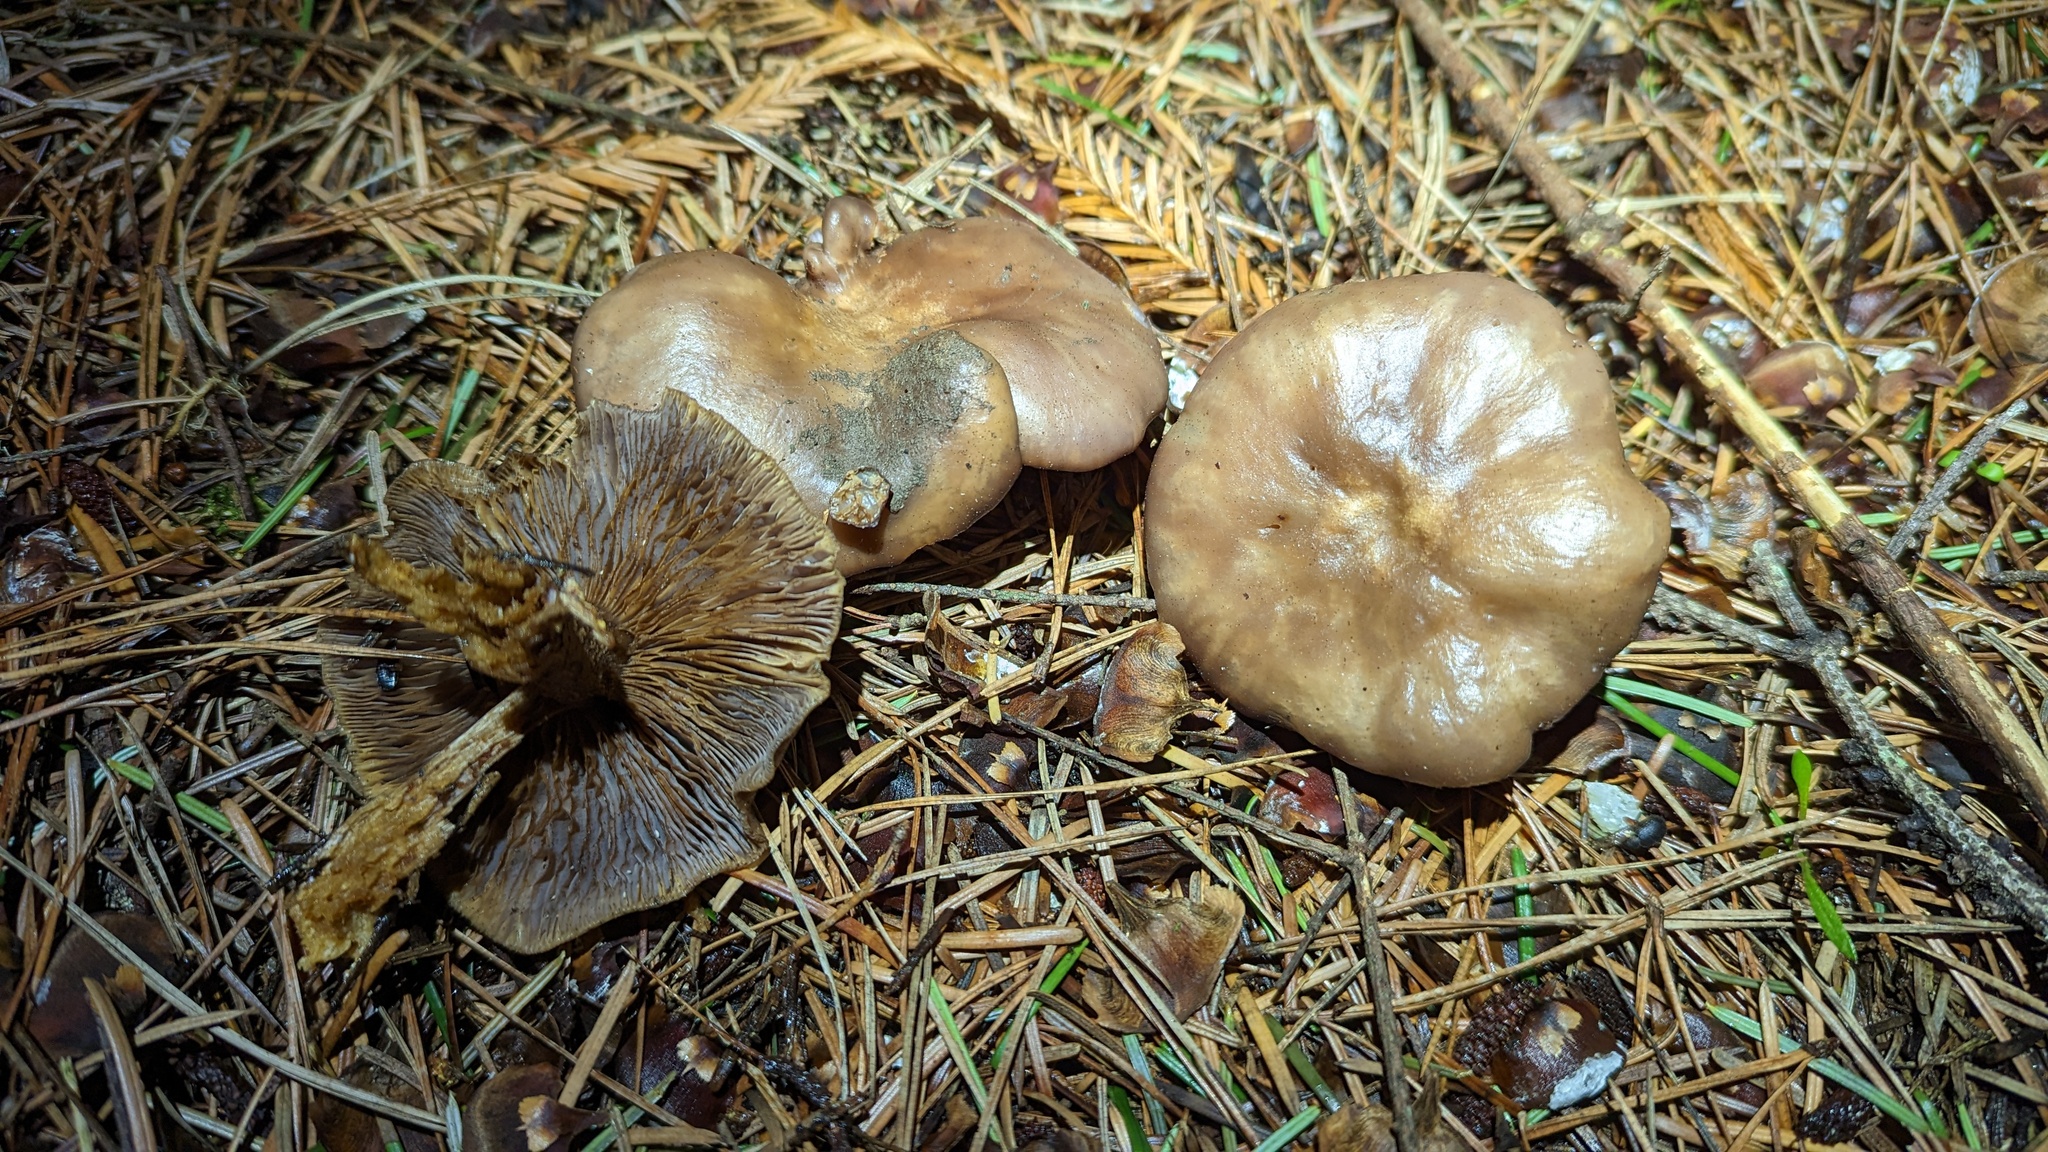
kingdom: Fungi
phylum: Basidiomycota
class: Agaricomycetes
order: Agaricales
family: Tricholomataceae
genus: Collybia
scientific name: Collybia
